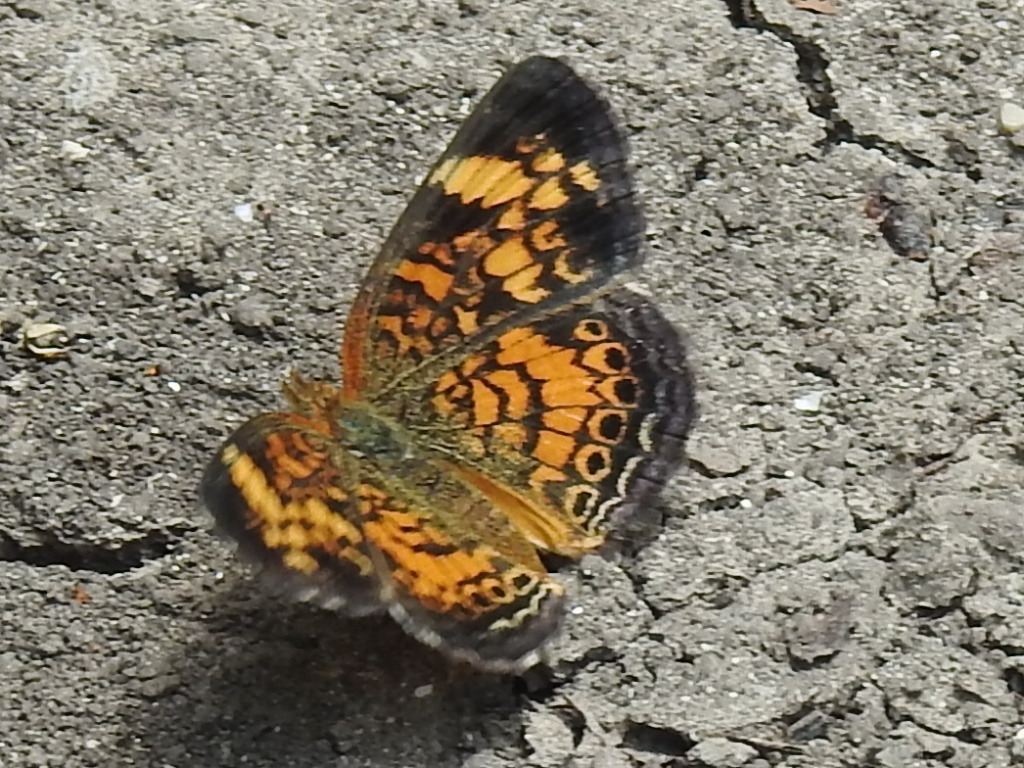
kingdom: Animalia
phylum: Arthropoda
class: Insecta
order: Lepidoptera
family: Nymphalidae
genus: Phyciodes
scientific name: Phyciodes tharos
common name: Pearl crescent
